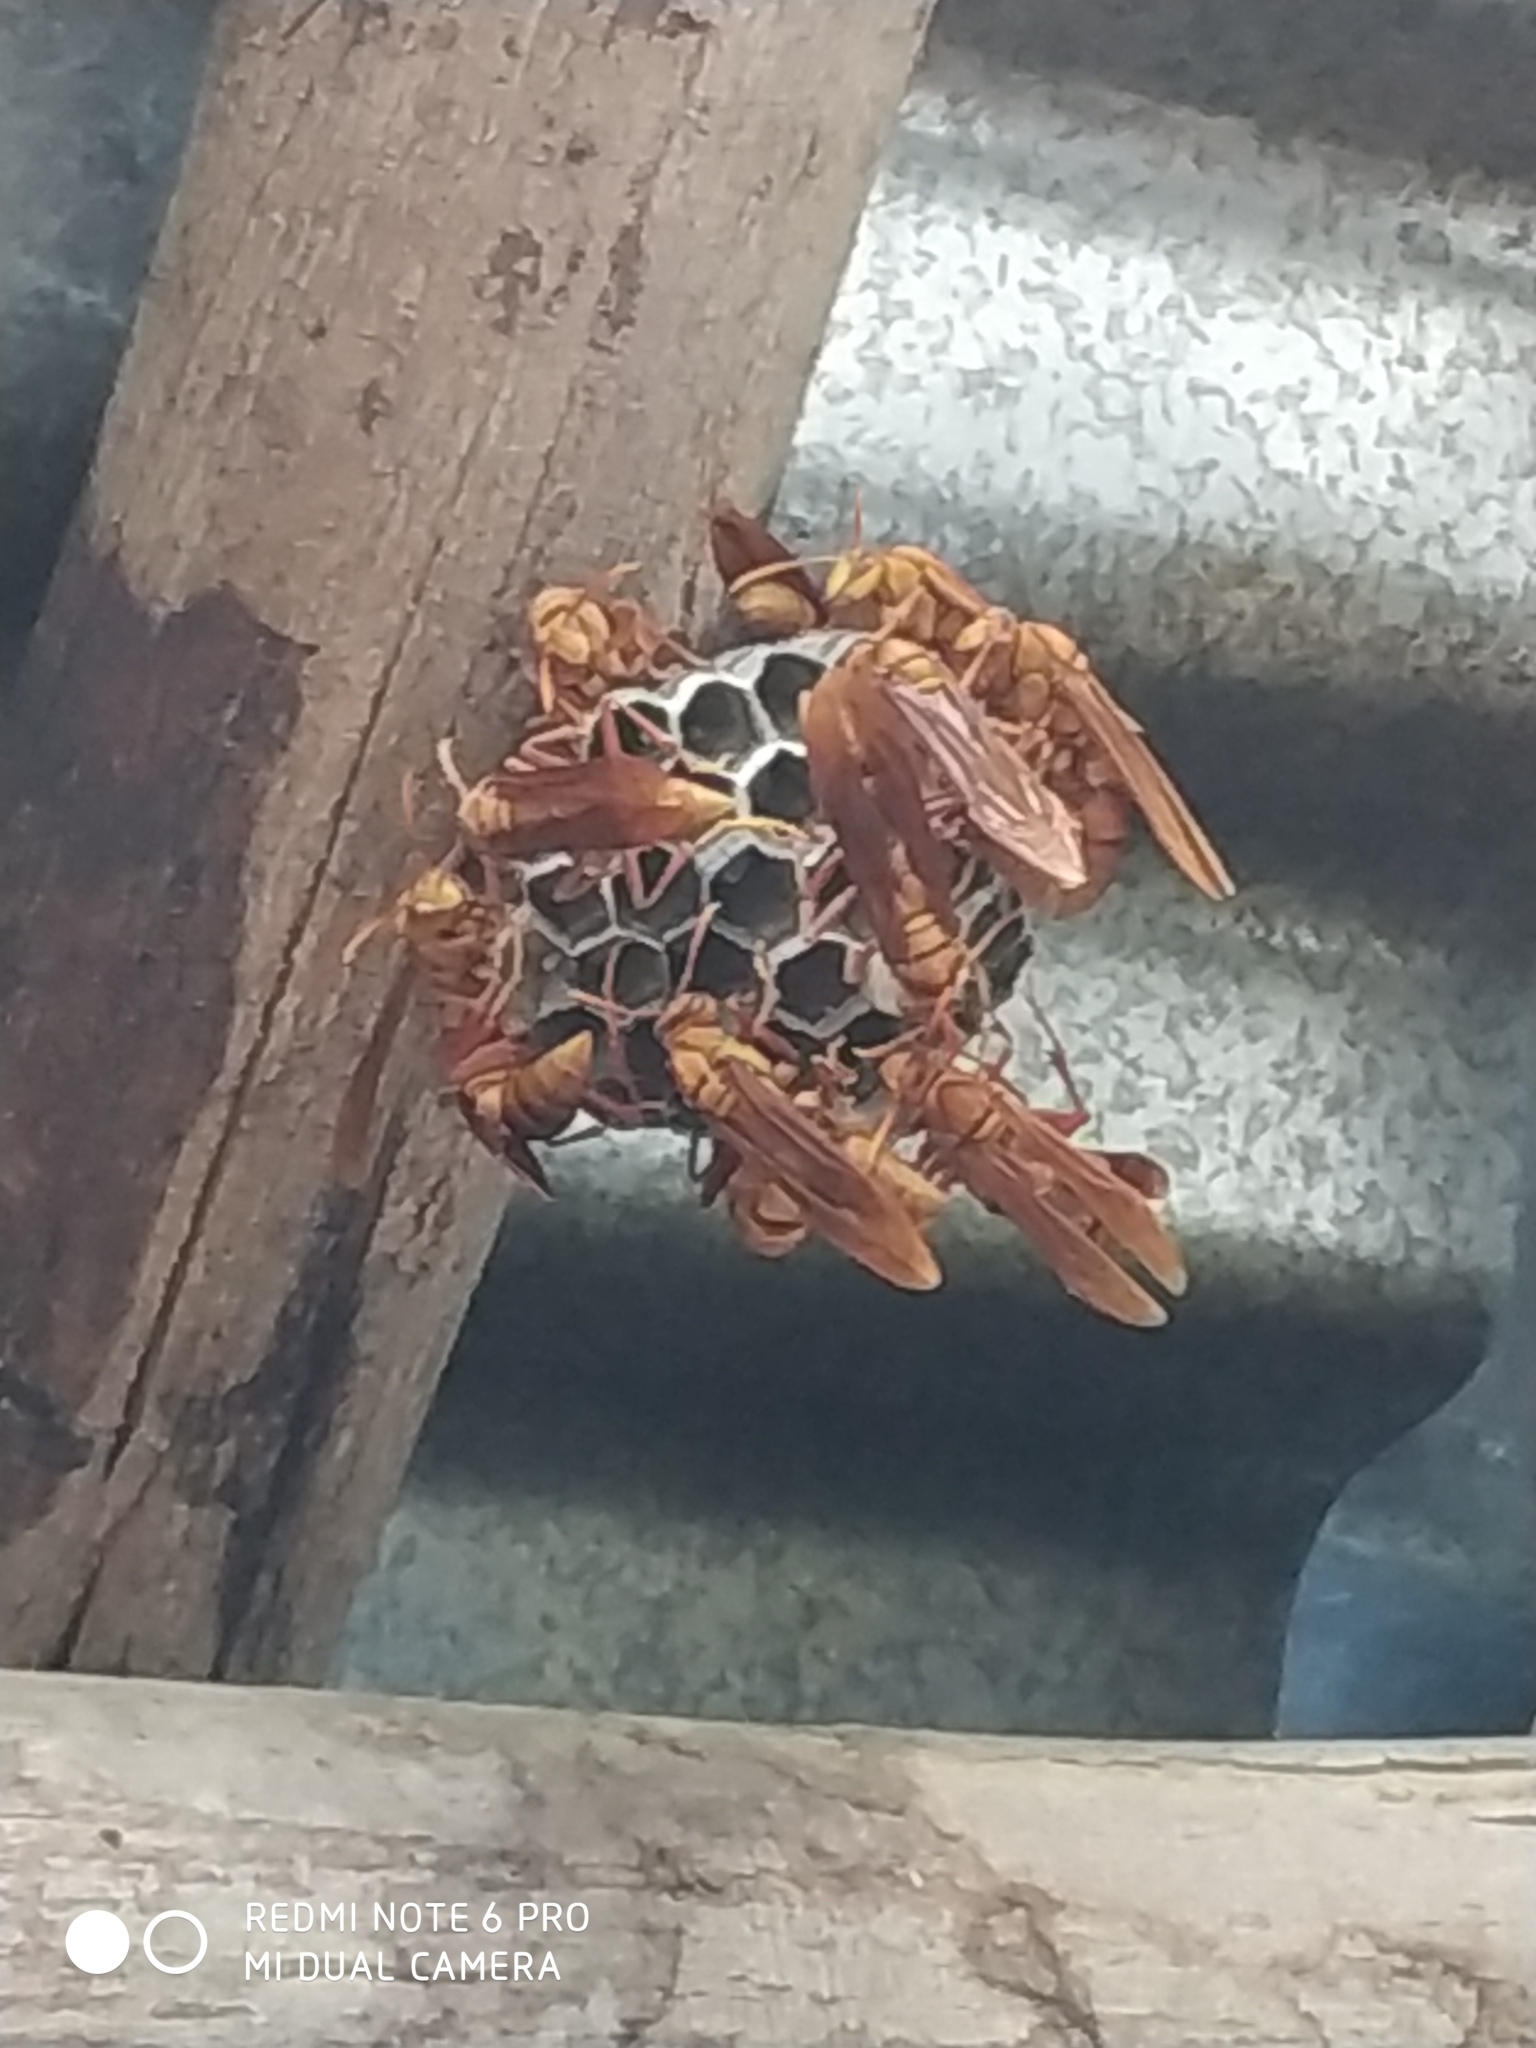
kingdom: Animalia
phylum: Arthropoda
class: Insecta
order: Hymenoptera
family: Eumenidae
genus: Polistes
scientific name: Polistes carnifex
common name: Paper wasp
